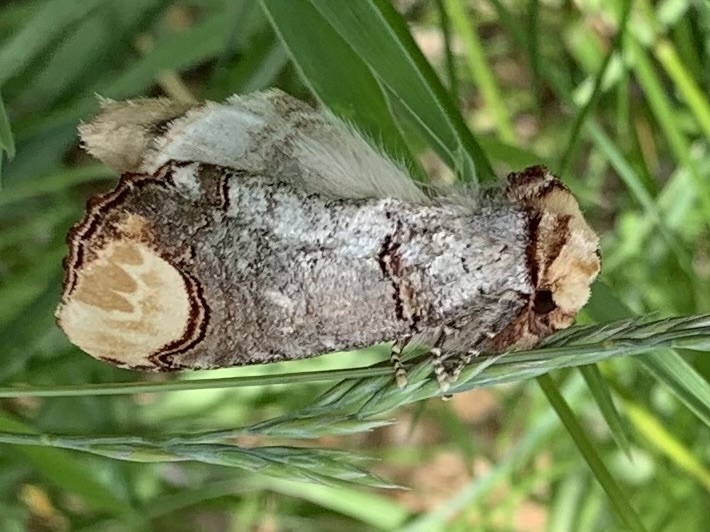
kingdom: Animalia
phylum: Arthropoda
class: Insecta
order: Lepidoptera
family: Notodontidae
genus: Phalera
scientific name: Phalera bucephala
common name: Buff-tip
